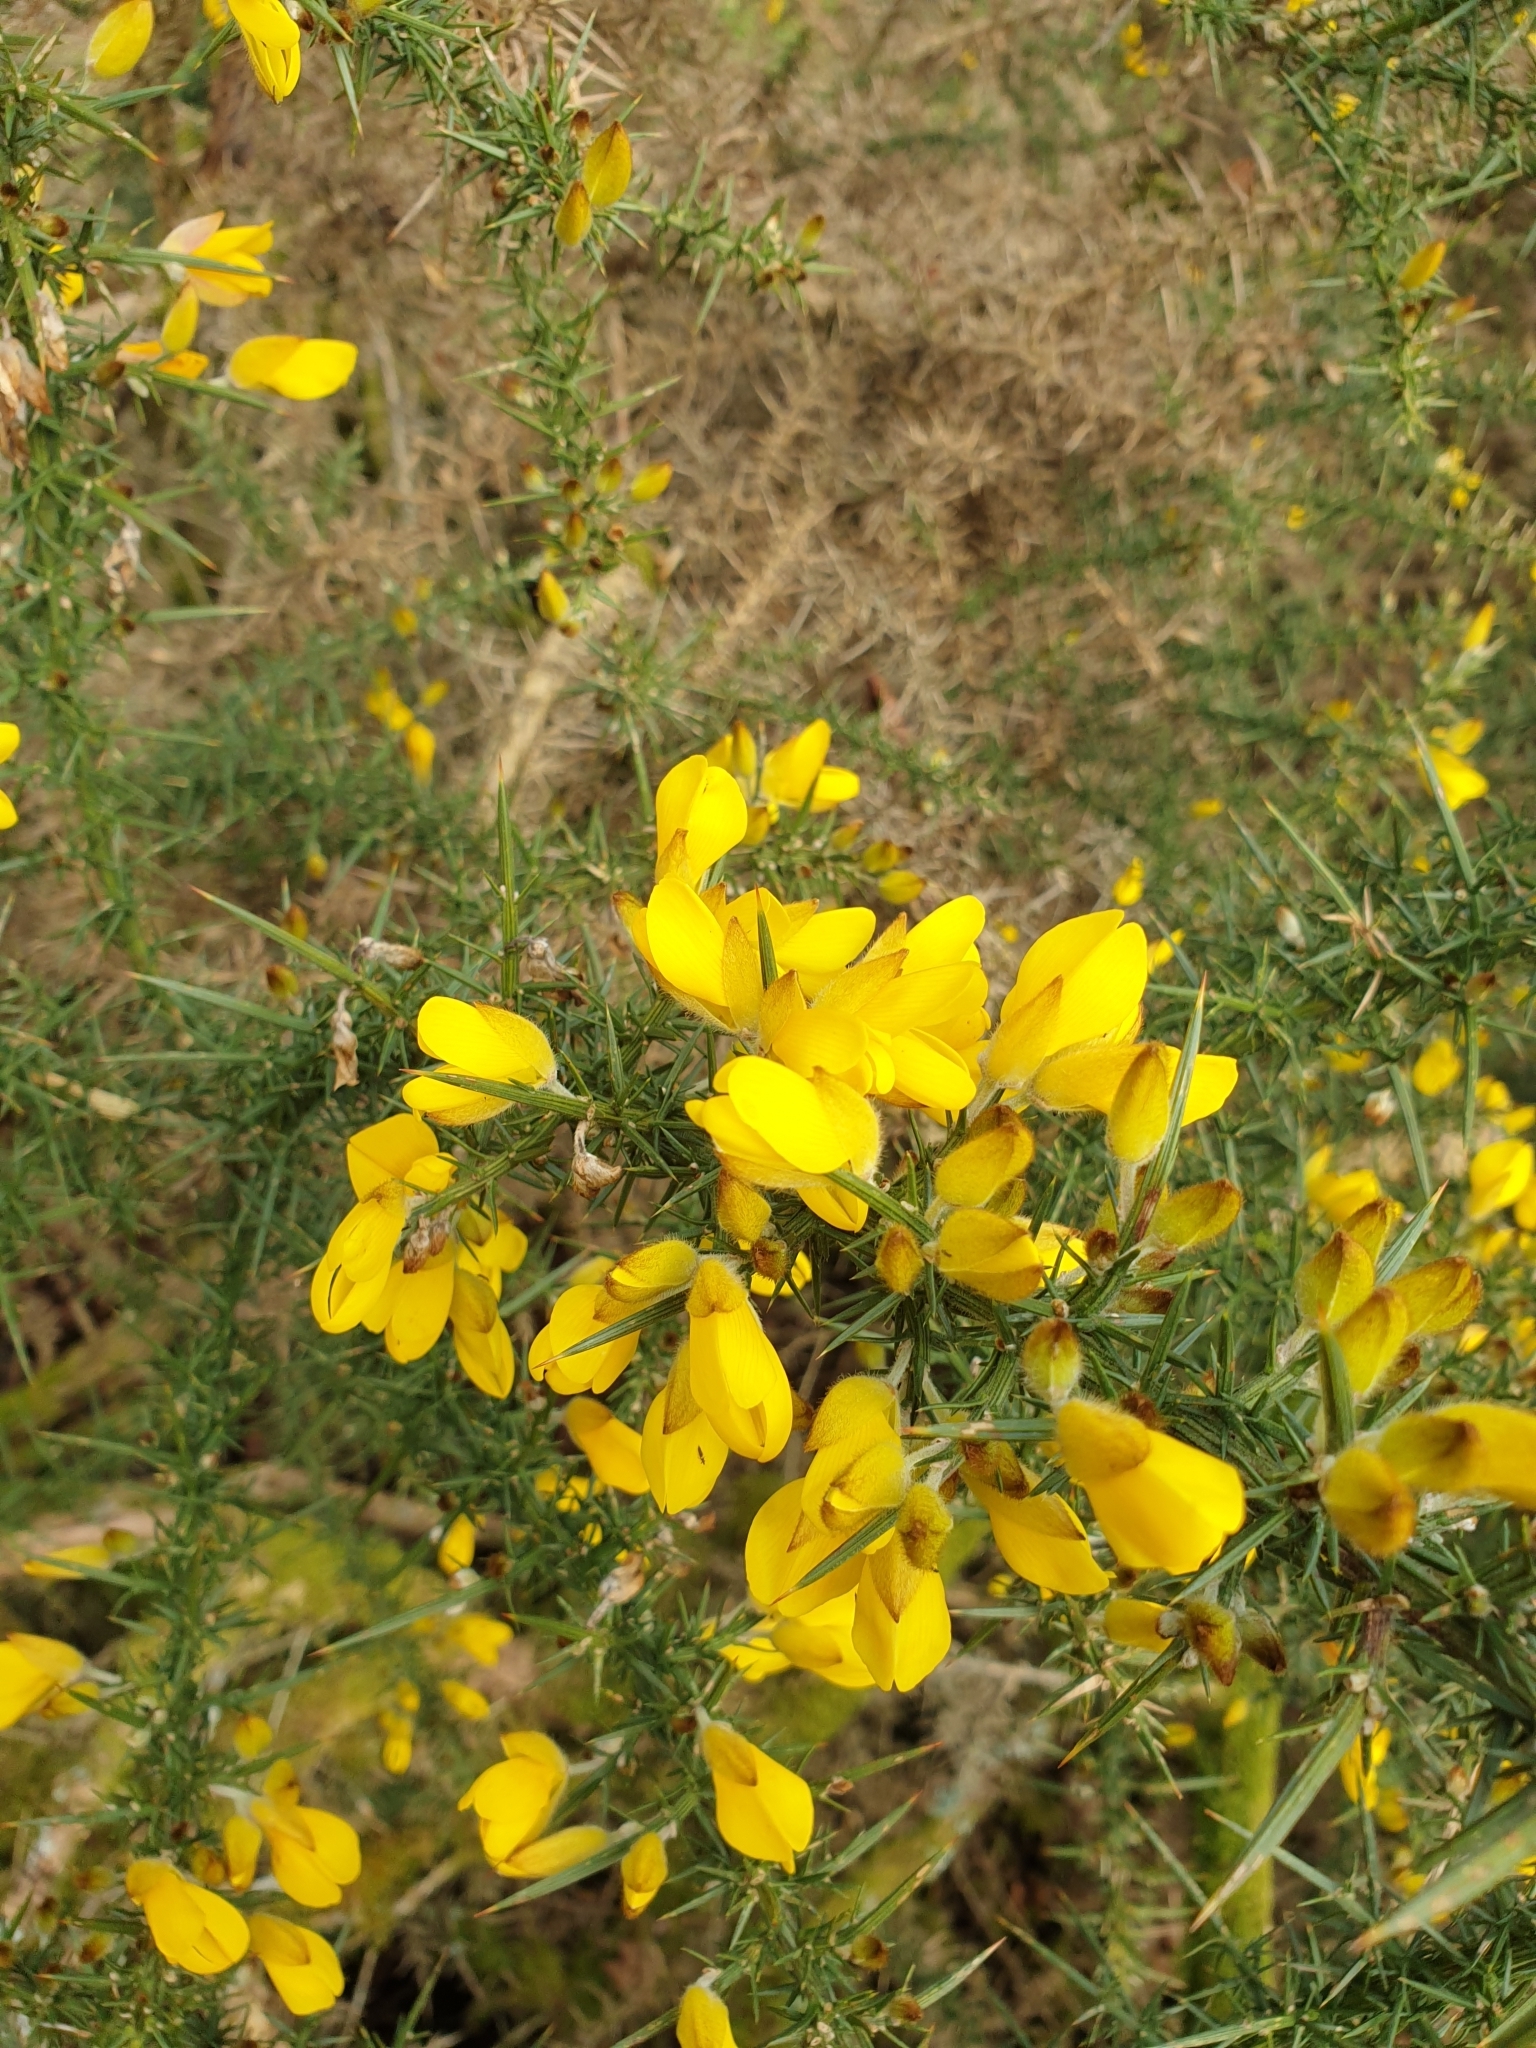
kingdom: Plantae
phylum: Tracheophyta
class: Magnoliopsida
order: Fabales
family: Fabaceae
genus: Ulex
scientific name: Ulex europaeus
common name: Common gorse
